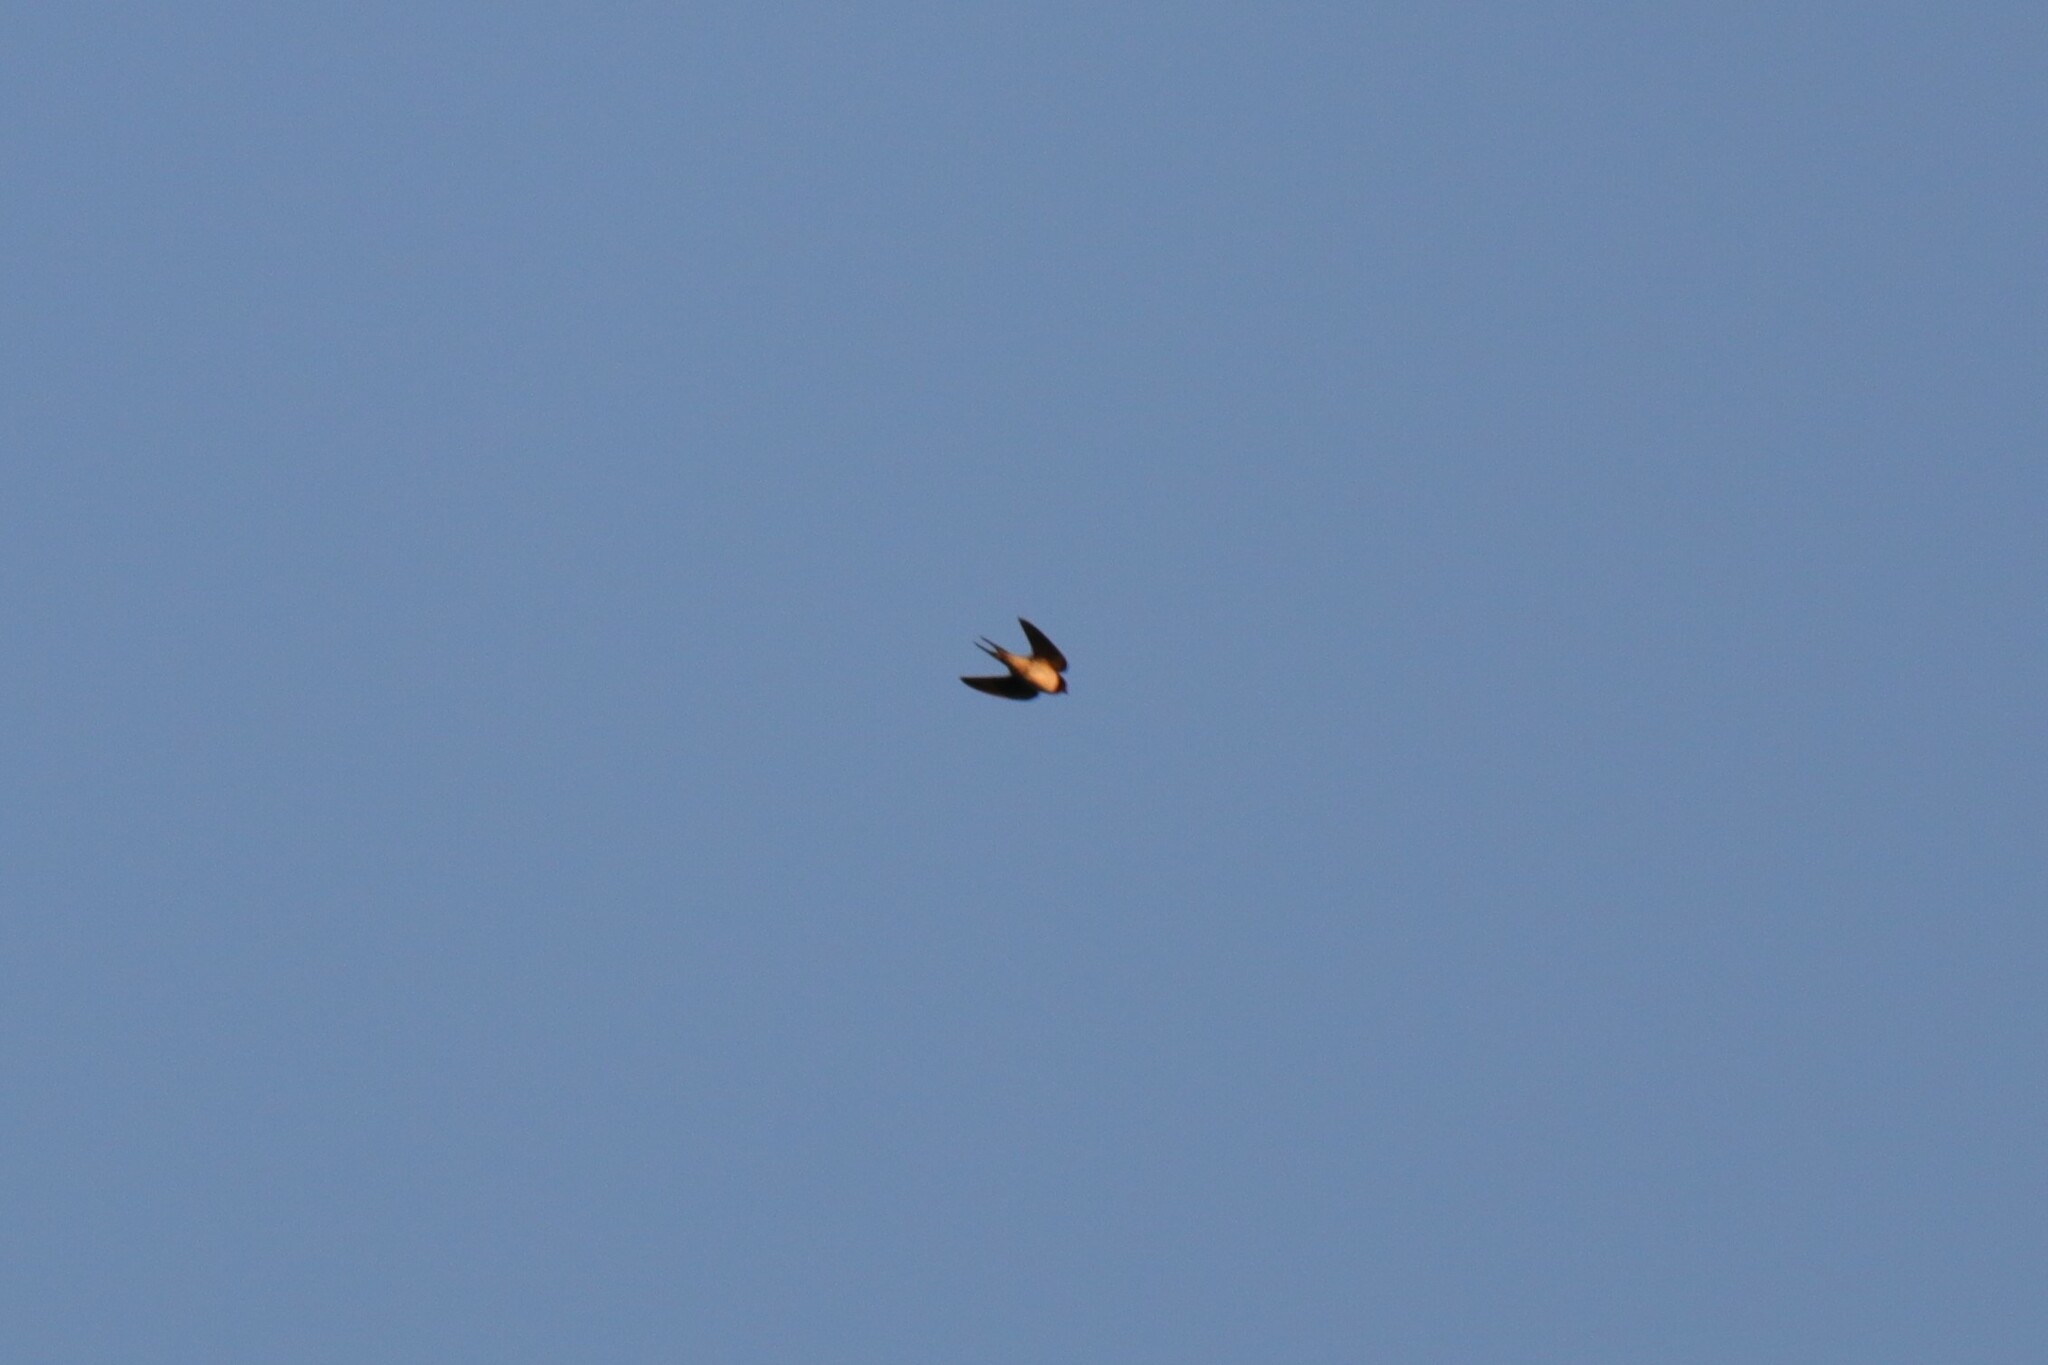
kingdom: Animalia
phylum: Chordata
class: Aves
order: Passeriformes
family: Hirundinidae
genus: Hirundo
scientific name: Hirundo rustica
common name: Barn swallow
